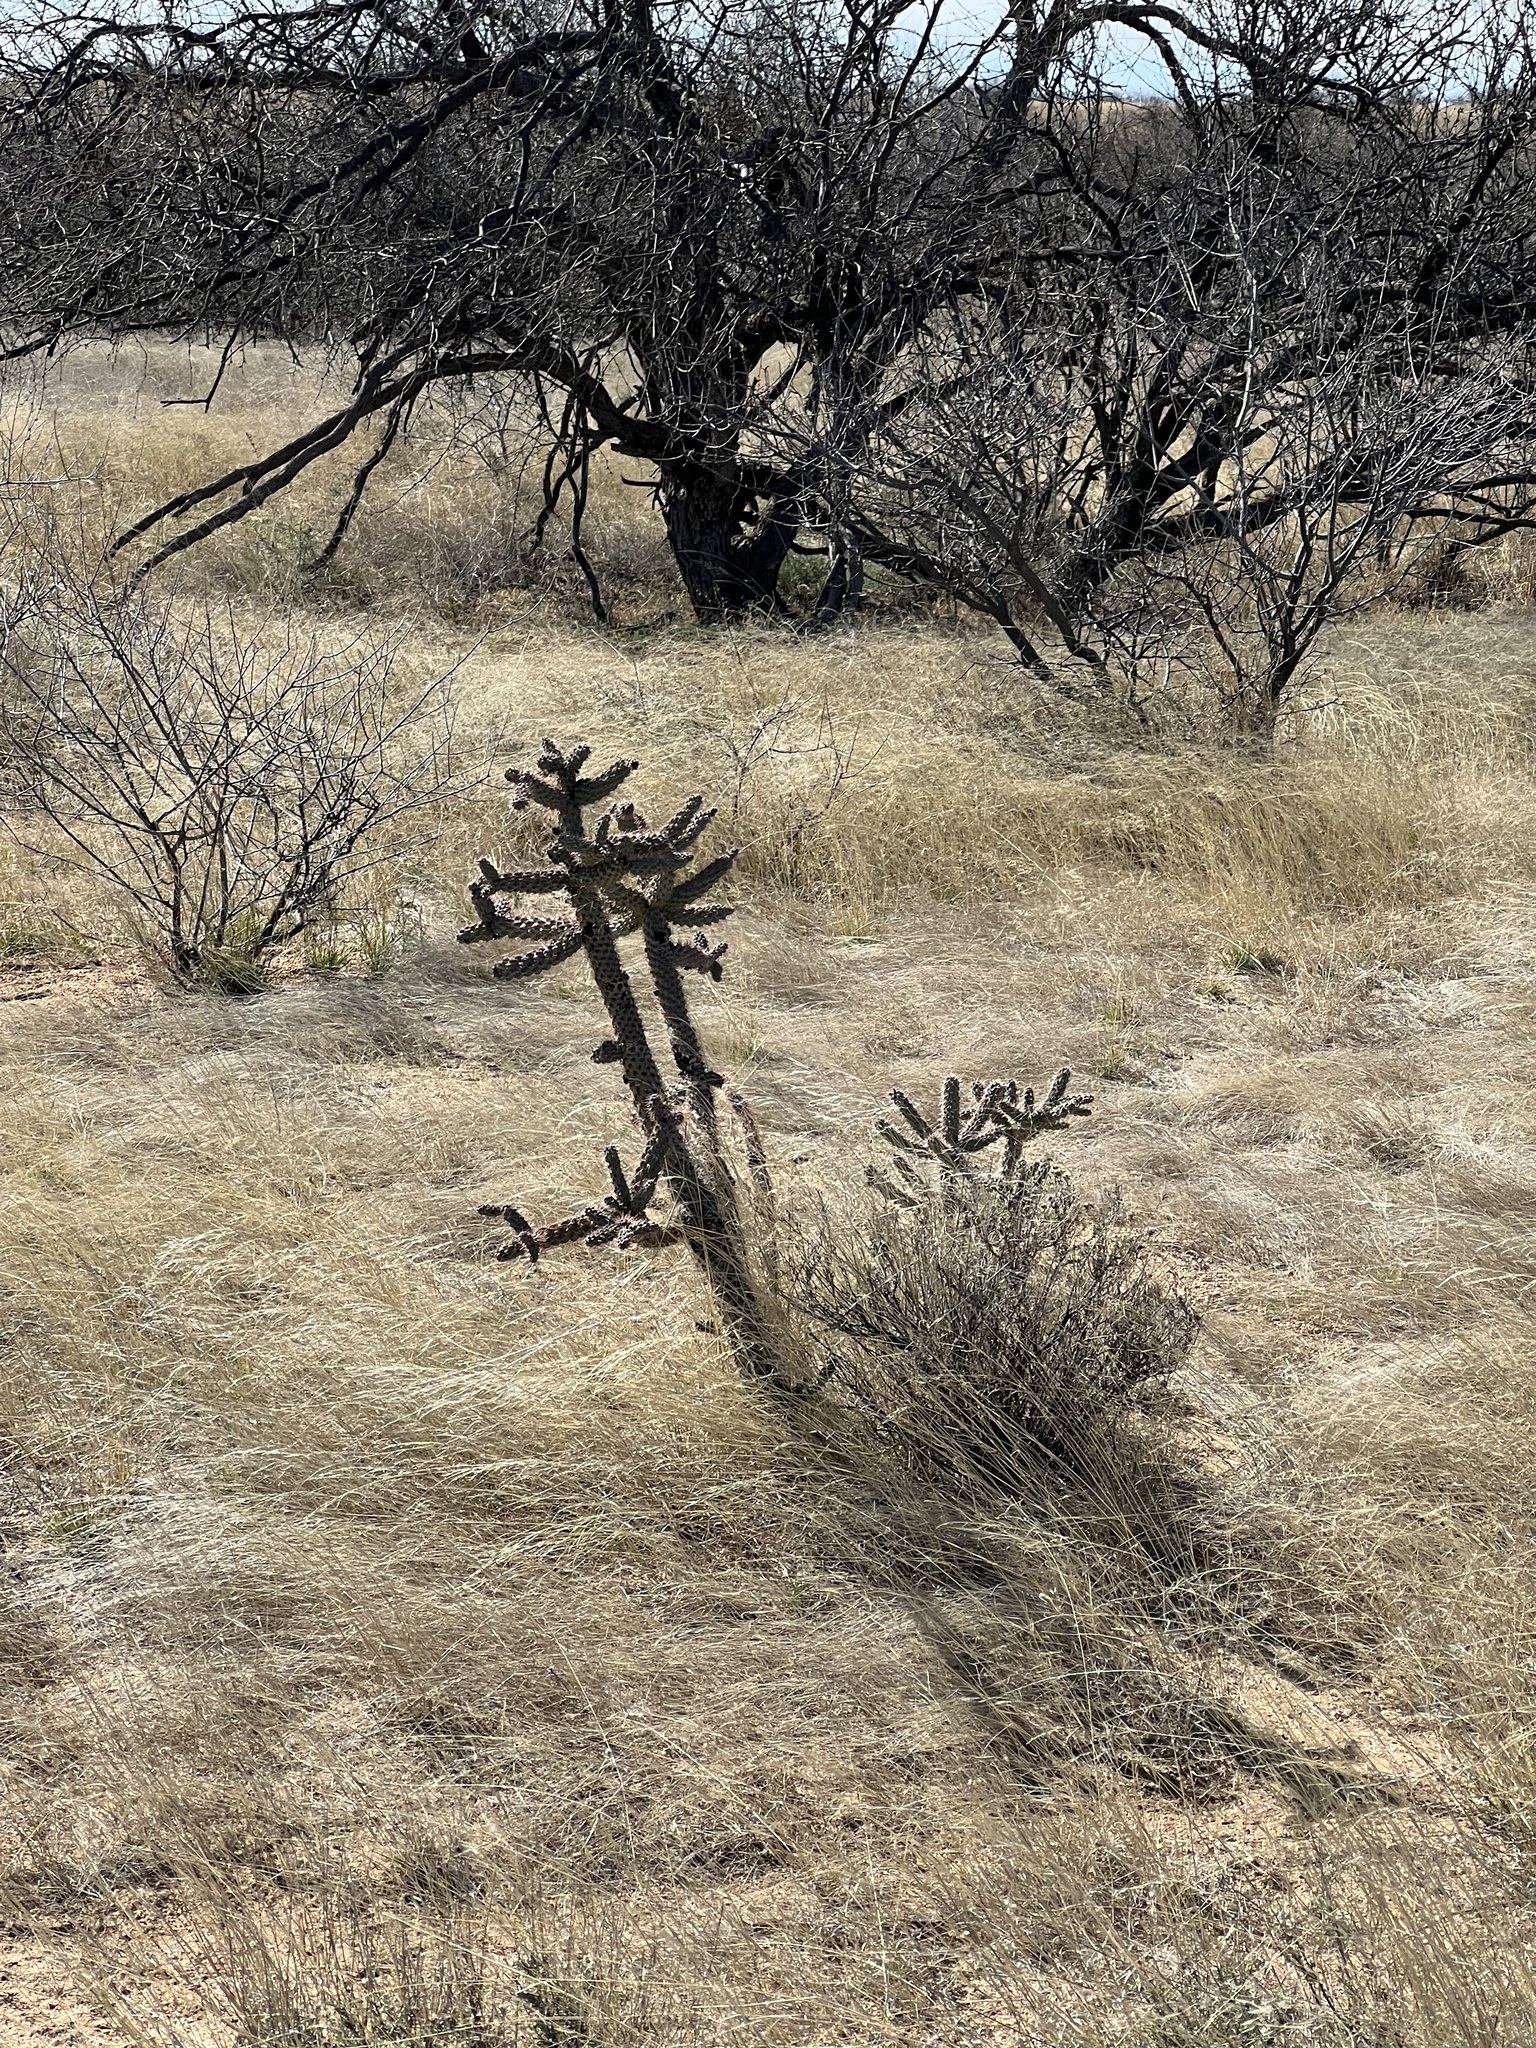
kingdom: Plantae
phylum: Tracheophyta
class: Magnoliopsida
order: Caryophyllales
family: Cactaceae
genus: Cylindropuntia
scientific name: Cylindropuntia imbricata
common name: Candelabrum cactus
